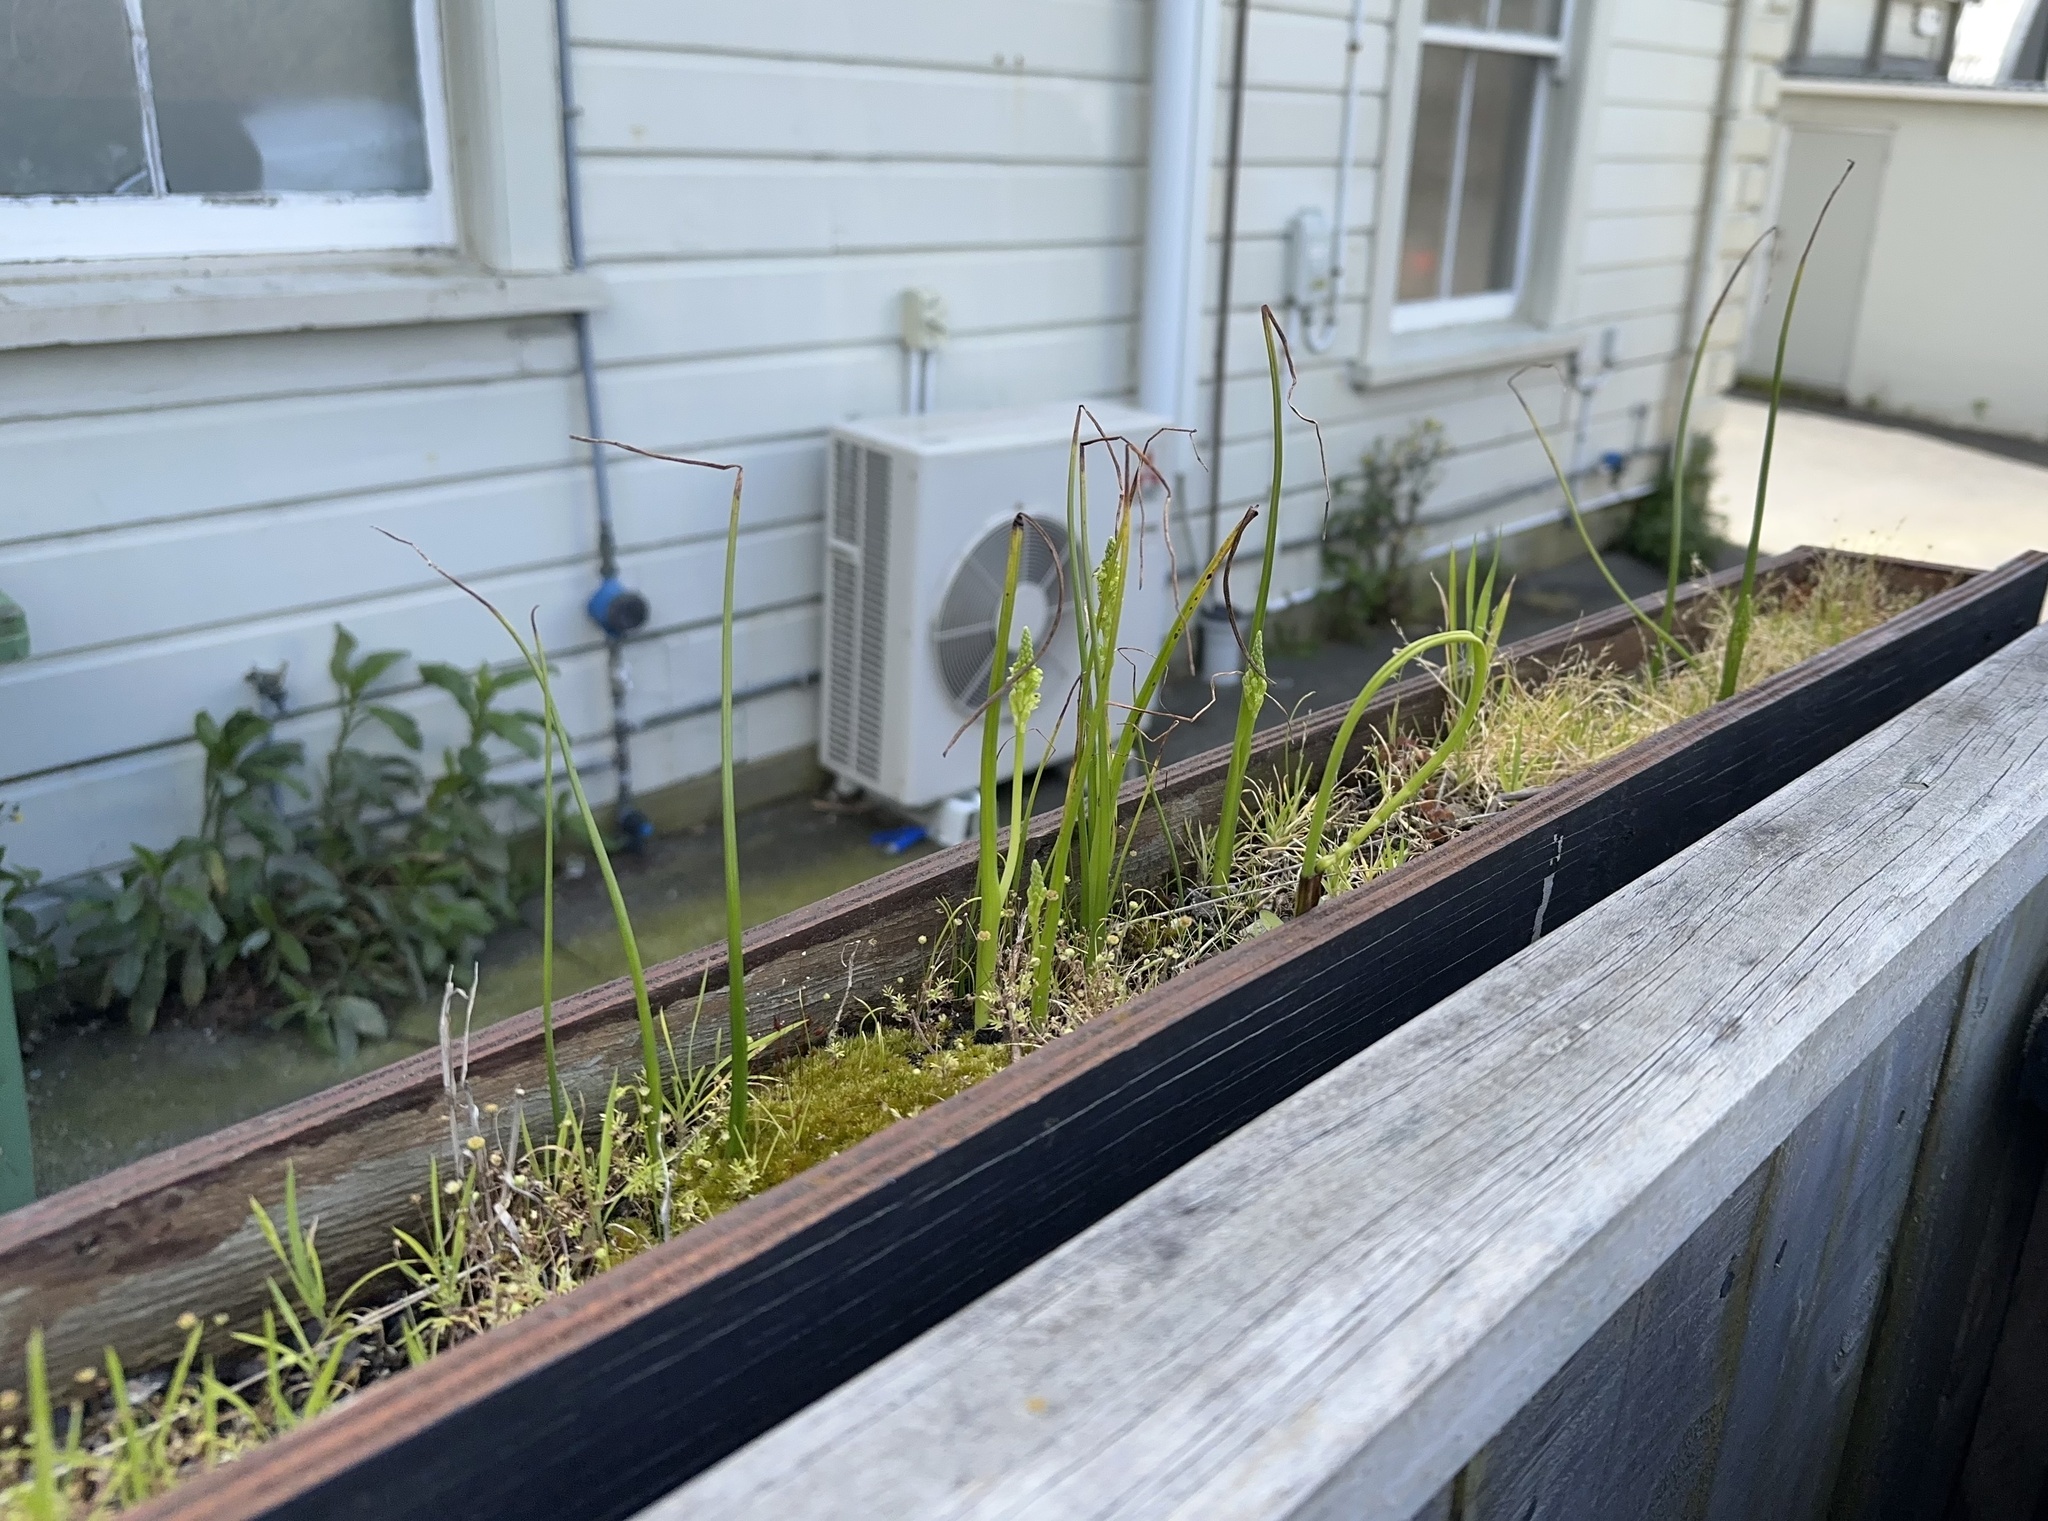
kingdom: Plantae
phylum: Tracheophyta
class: Liliopsida
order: Asparagales
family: Orchidaceae
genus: Microtis
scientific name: Microtis unifolia
